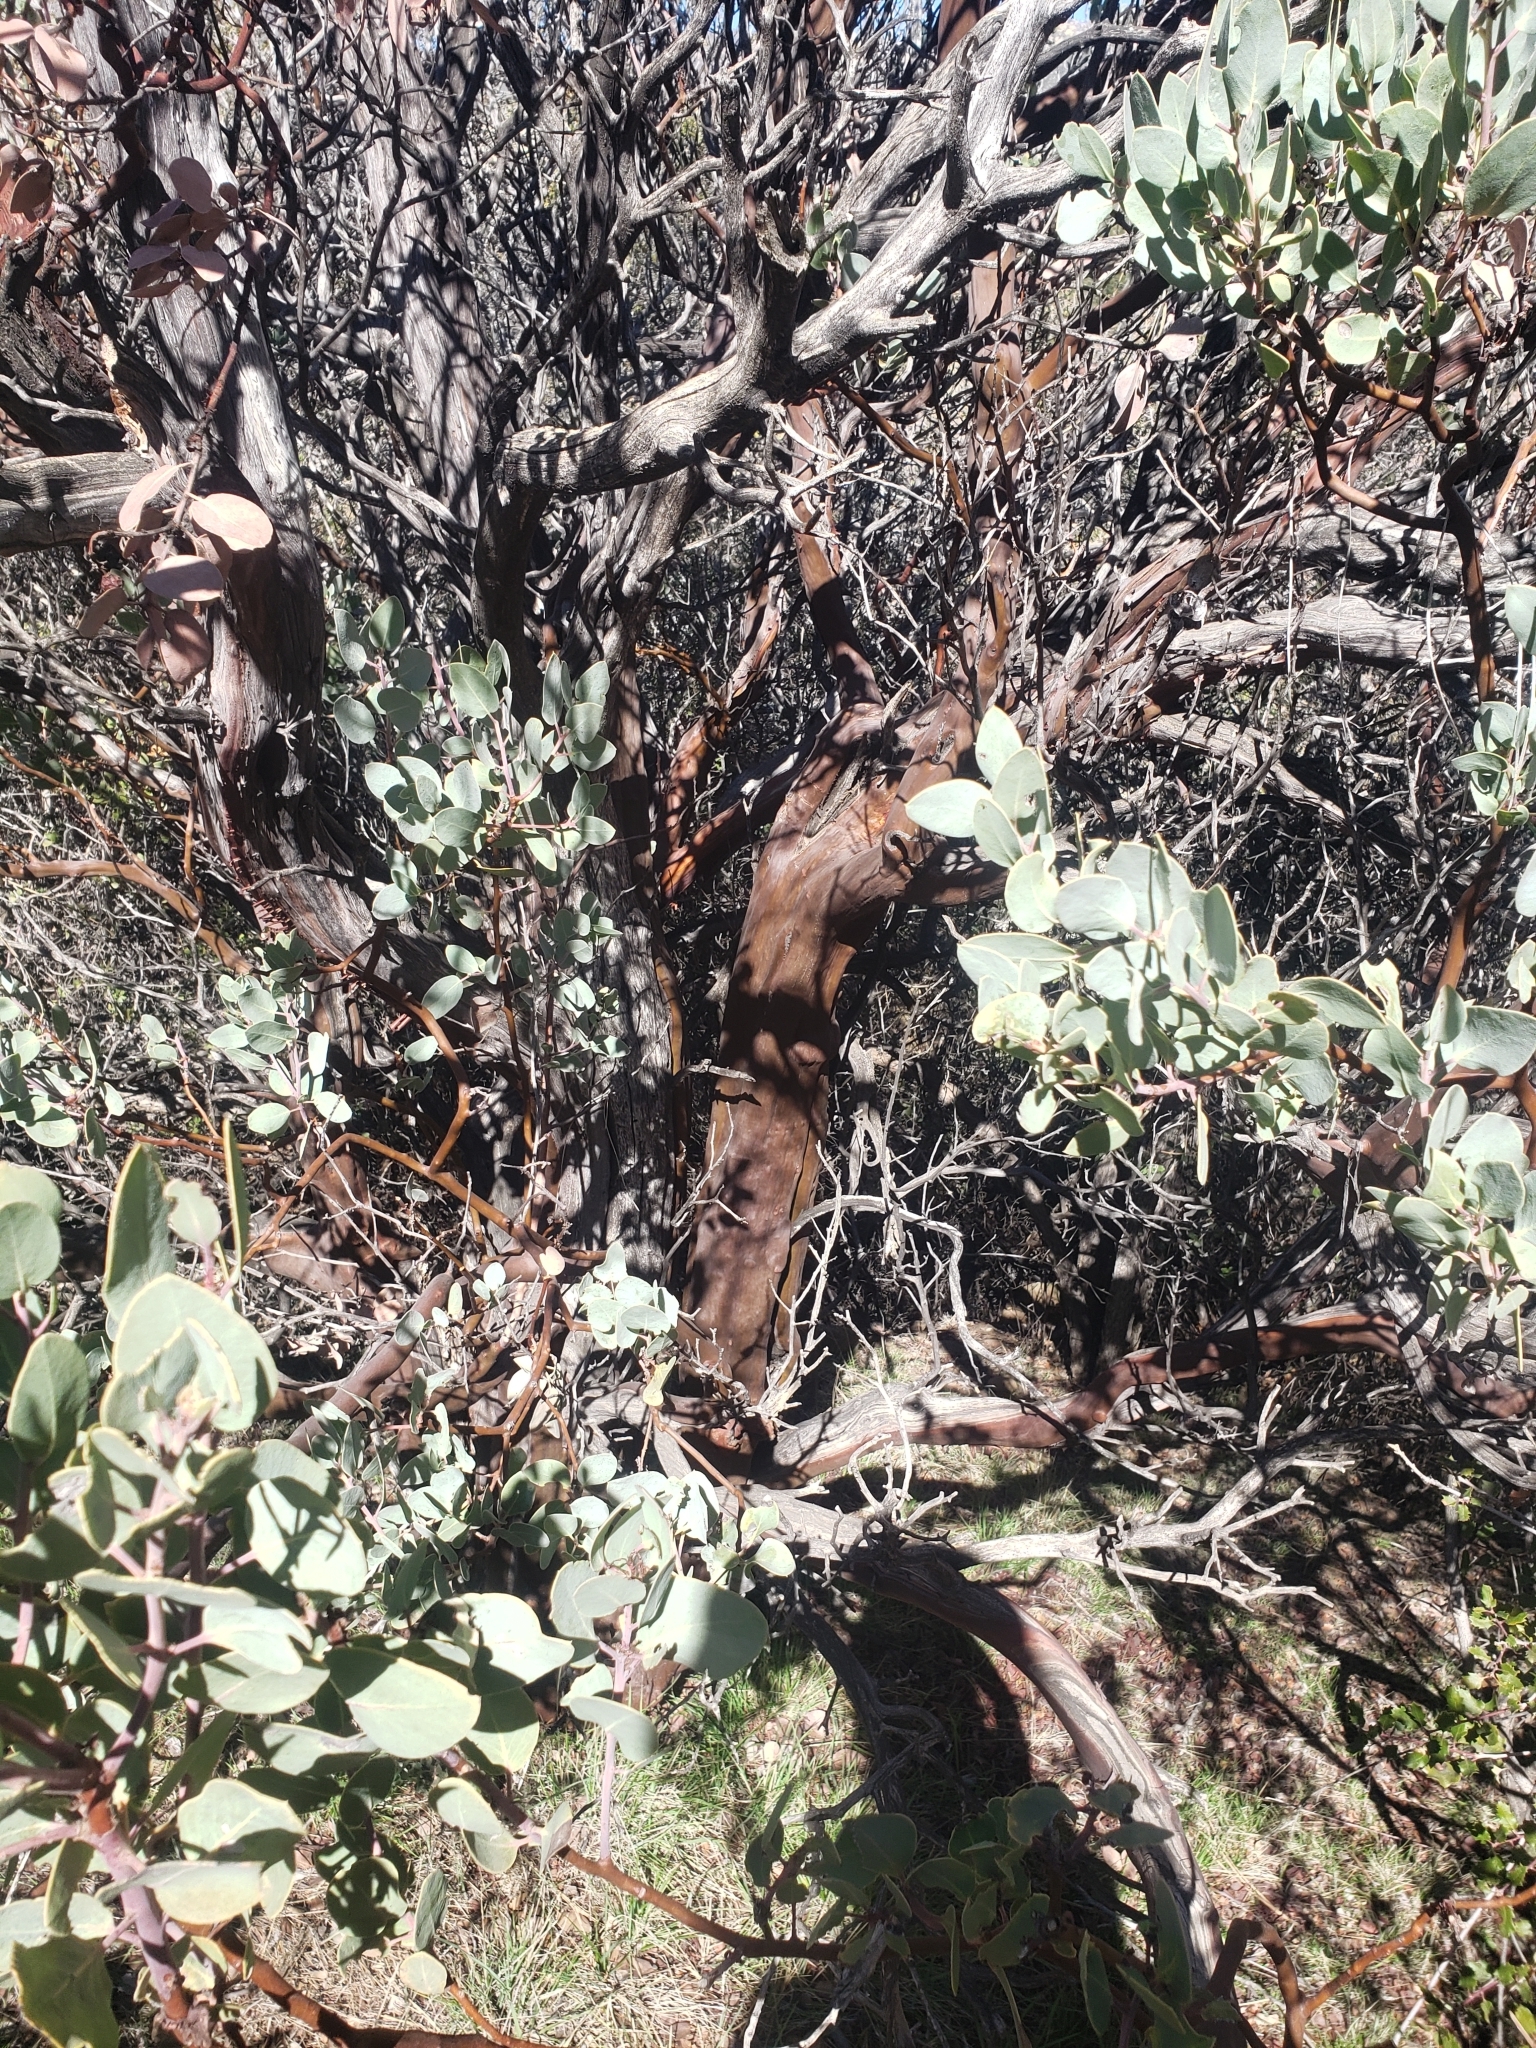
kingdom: Plantae
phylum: Tracheophyta
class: Magnoliopsida
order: Ericales
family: Ericaceae
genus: Arctostaphylos
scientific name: Arctostaphylos glauca
